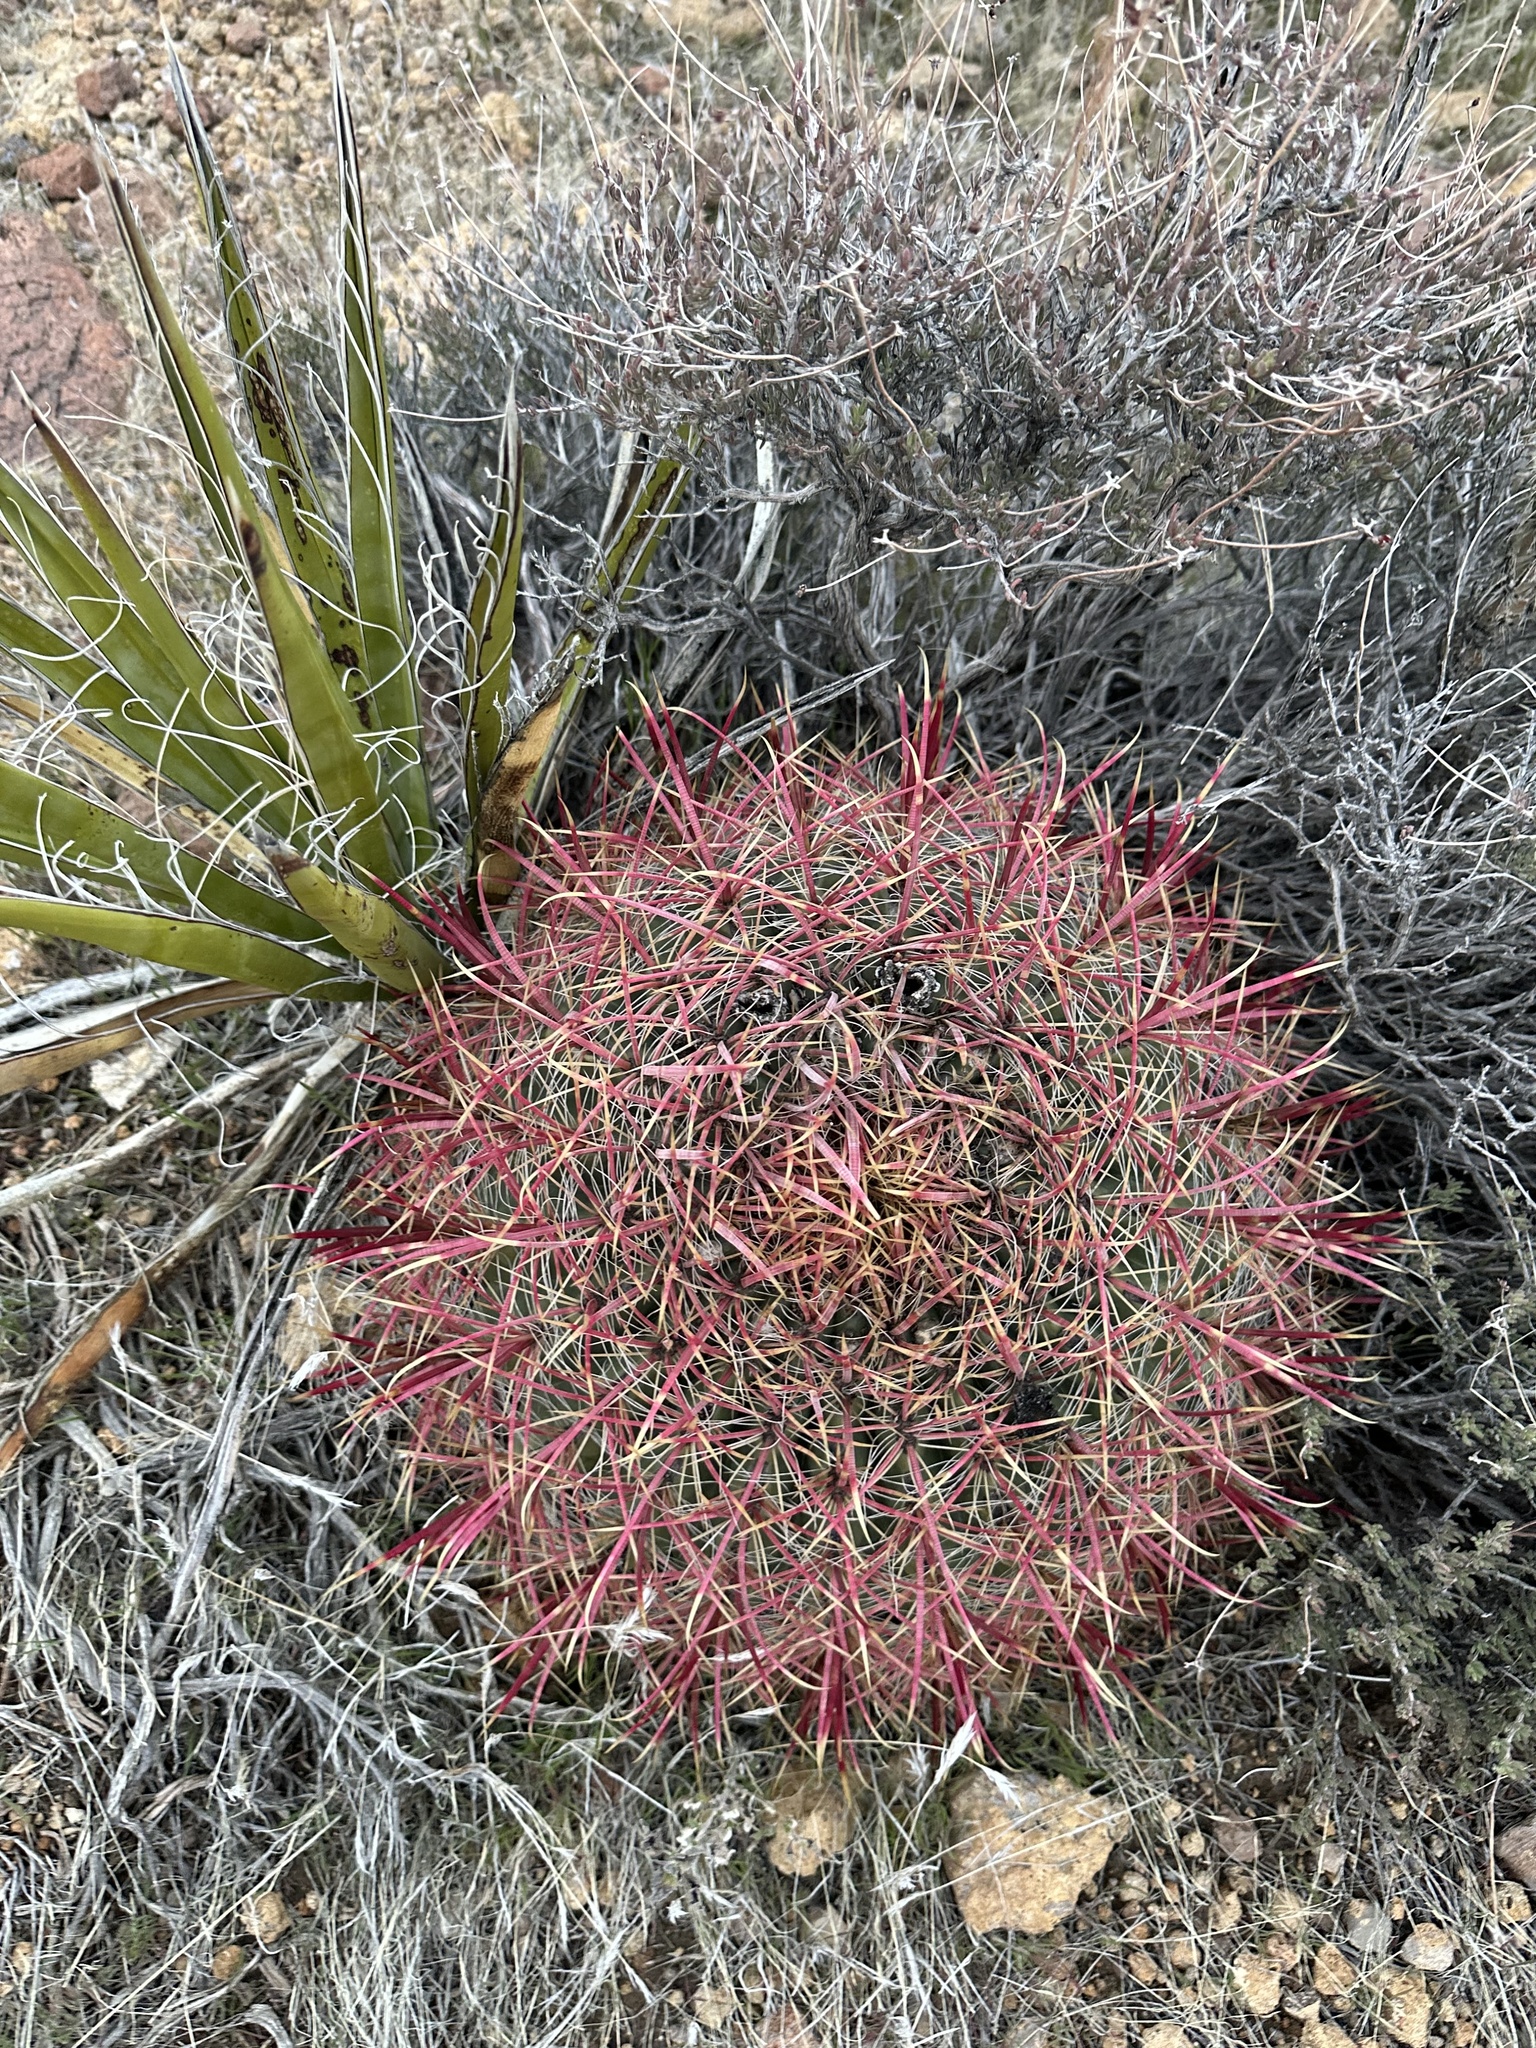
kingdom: Plantae
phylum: Tracheophyta
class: Magnoliopsida
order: Caryophyllales
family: Cactaceae
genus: Ferocactus
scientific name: Ferocactus cylindraceus
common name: California barrel cactus
